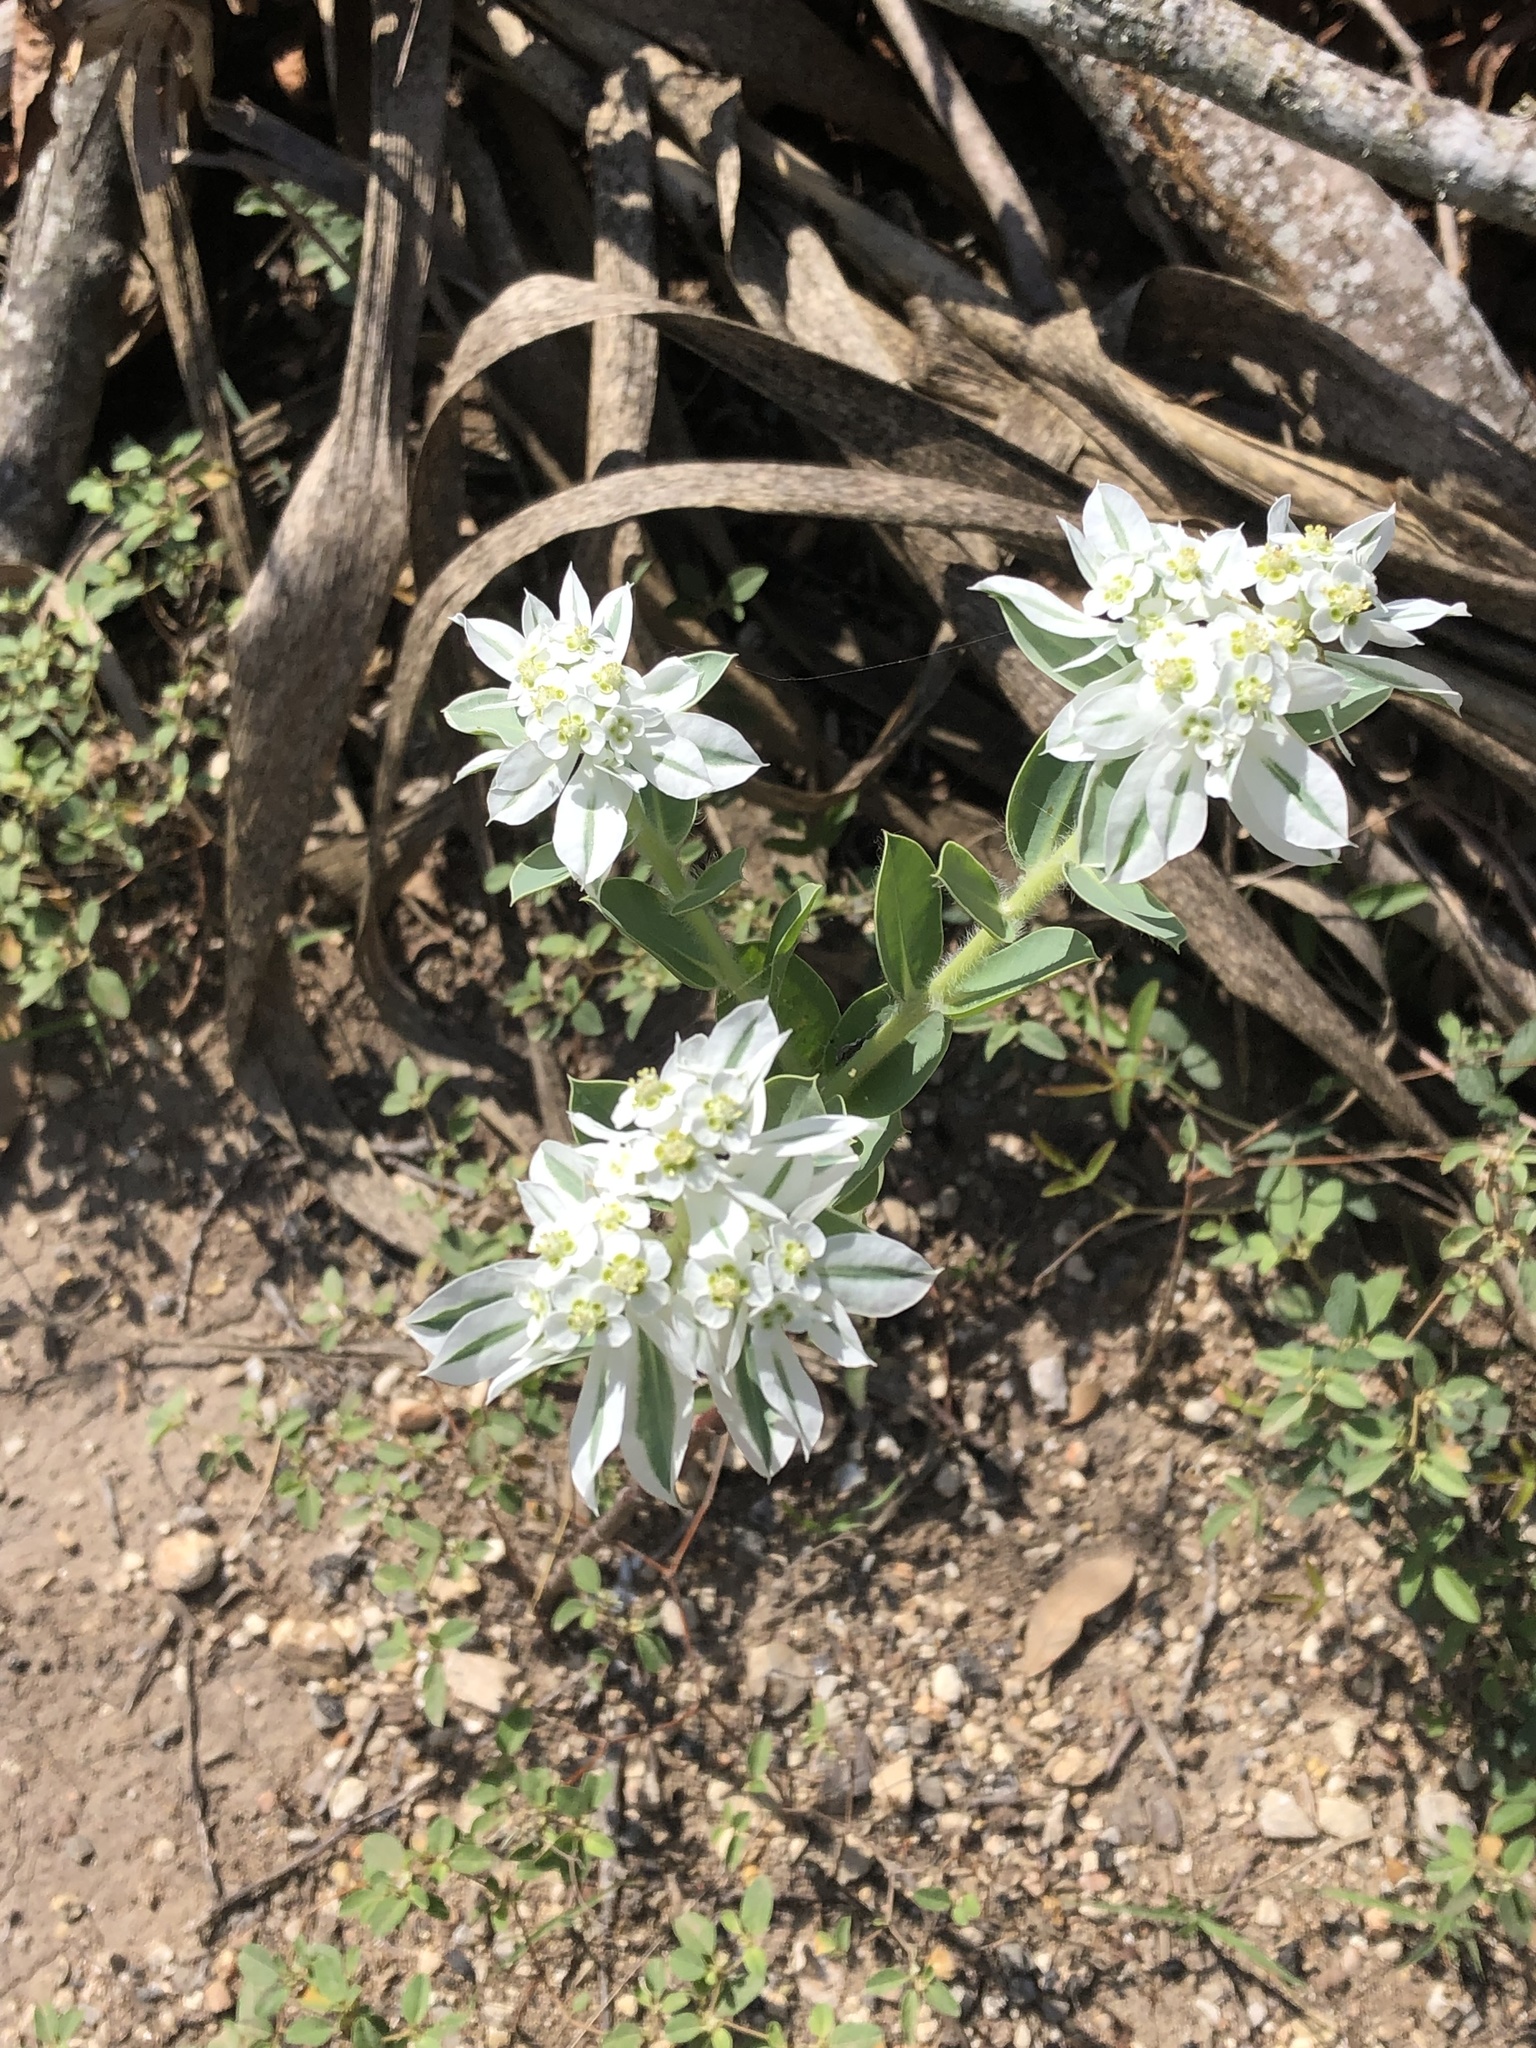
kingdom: Plantae
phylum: Tracheophyta
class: Magnoliopsida
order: Malpighiales
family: Euphorbiaceae
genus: Euphorbia
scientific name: Euphorbia marginata
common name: Ghostweed
